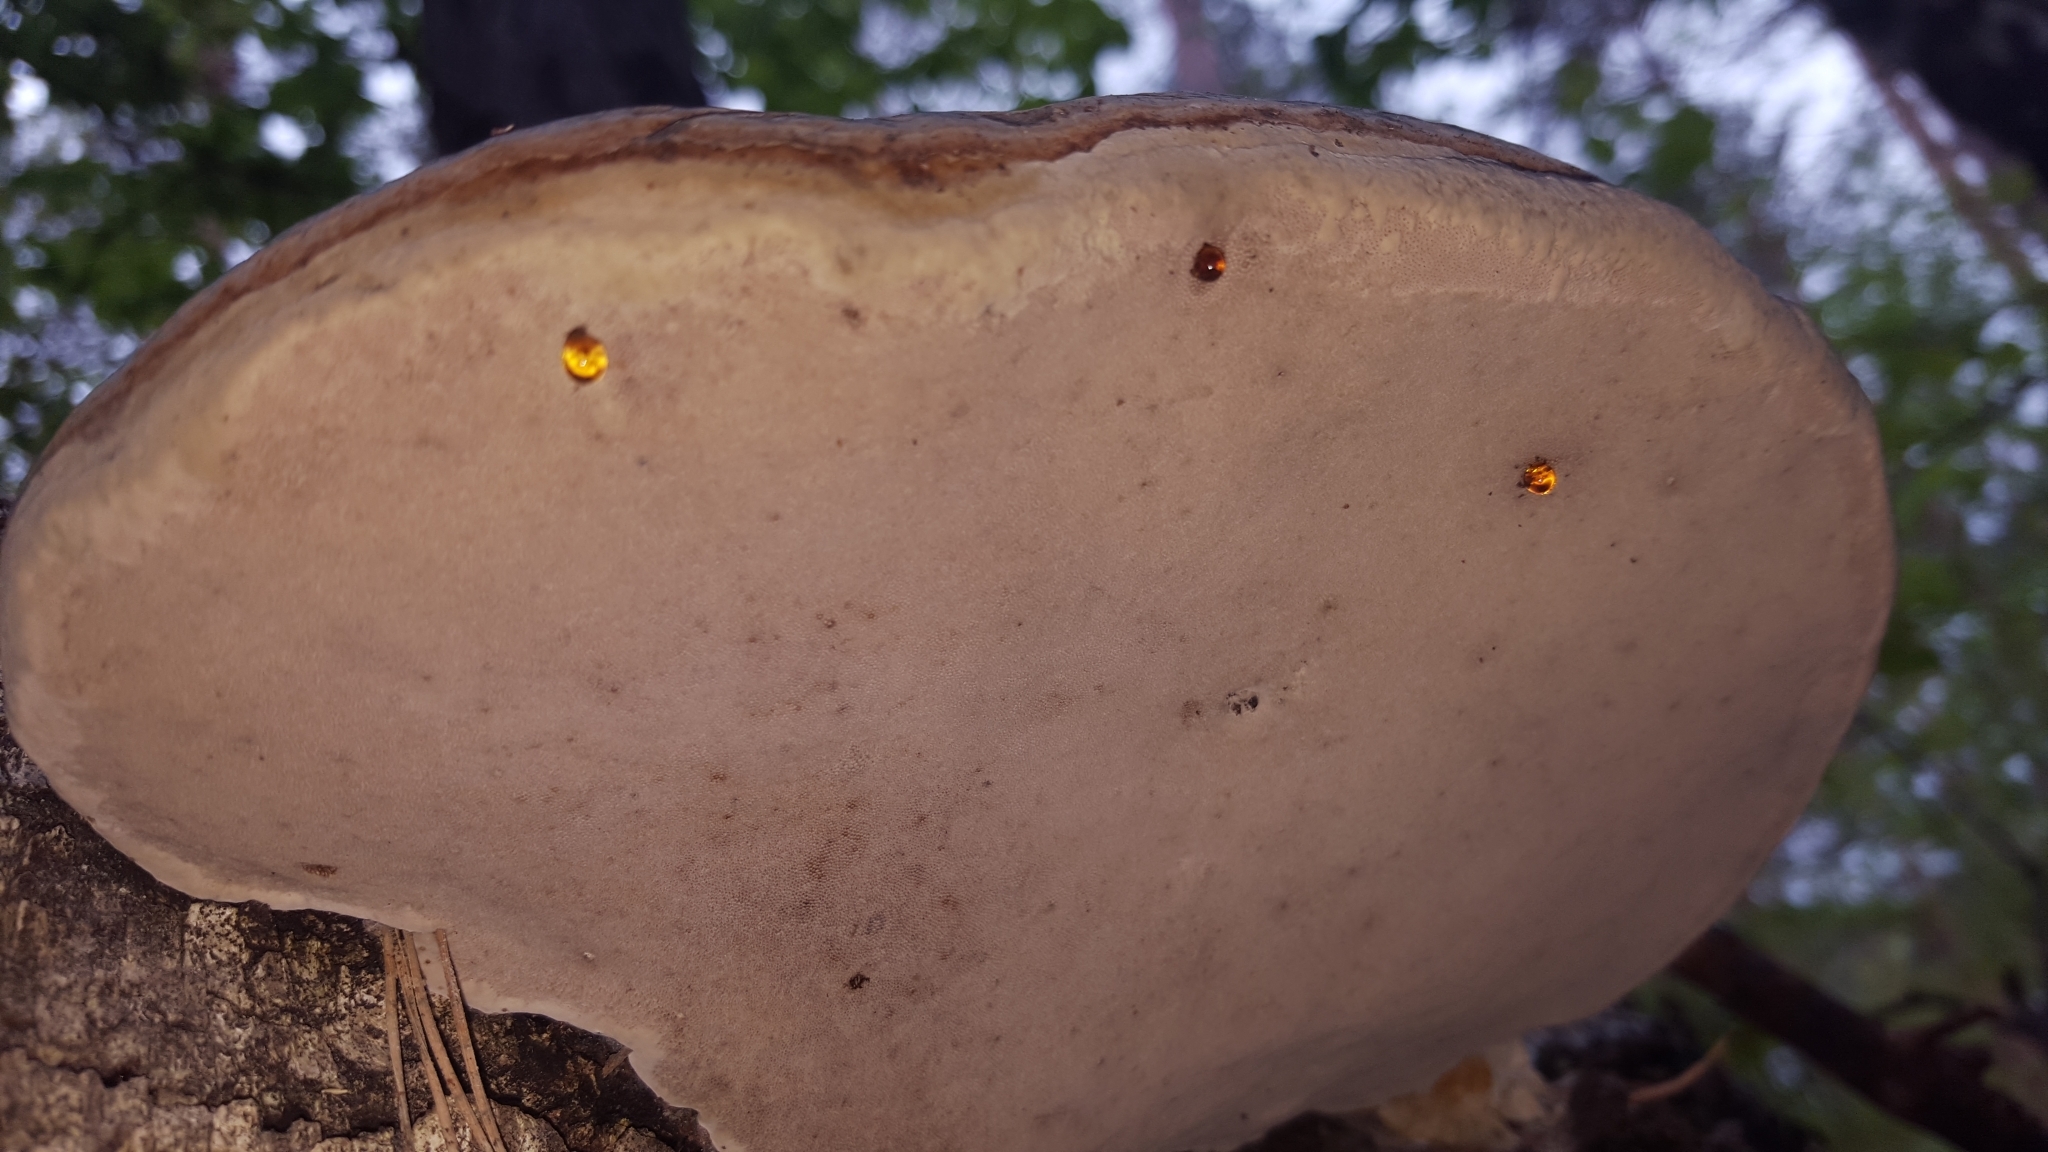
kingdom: Fungi
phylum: Basidiomycota
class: Agaricomycetes
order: Polyporales
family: Polyporaceae
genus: Fomes
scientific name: Fomes fomentarius
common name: Hoof fungus
